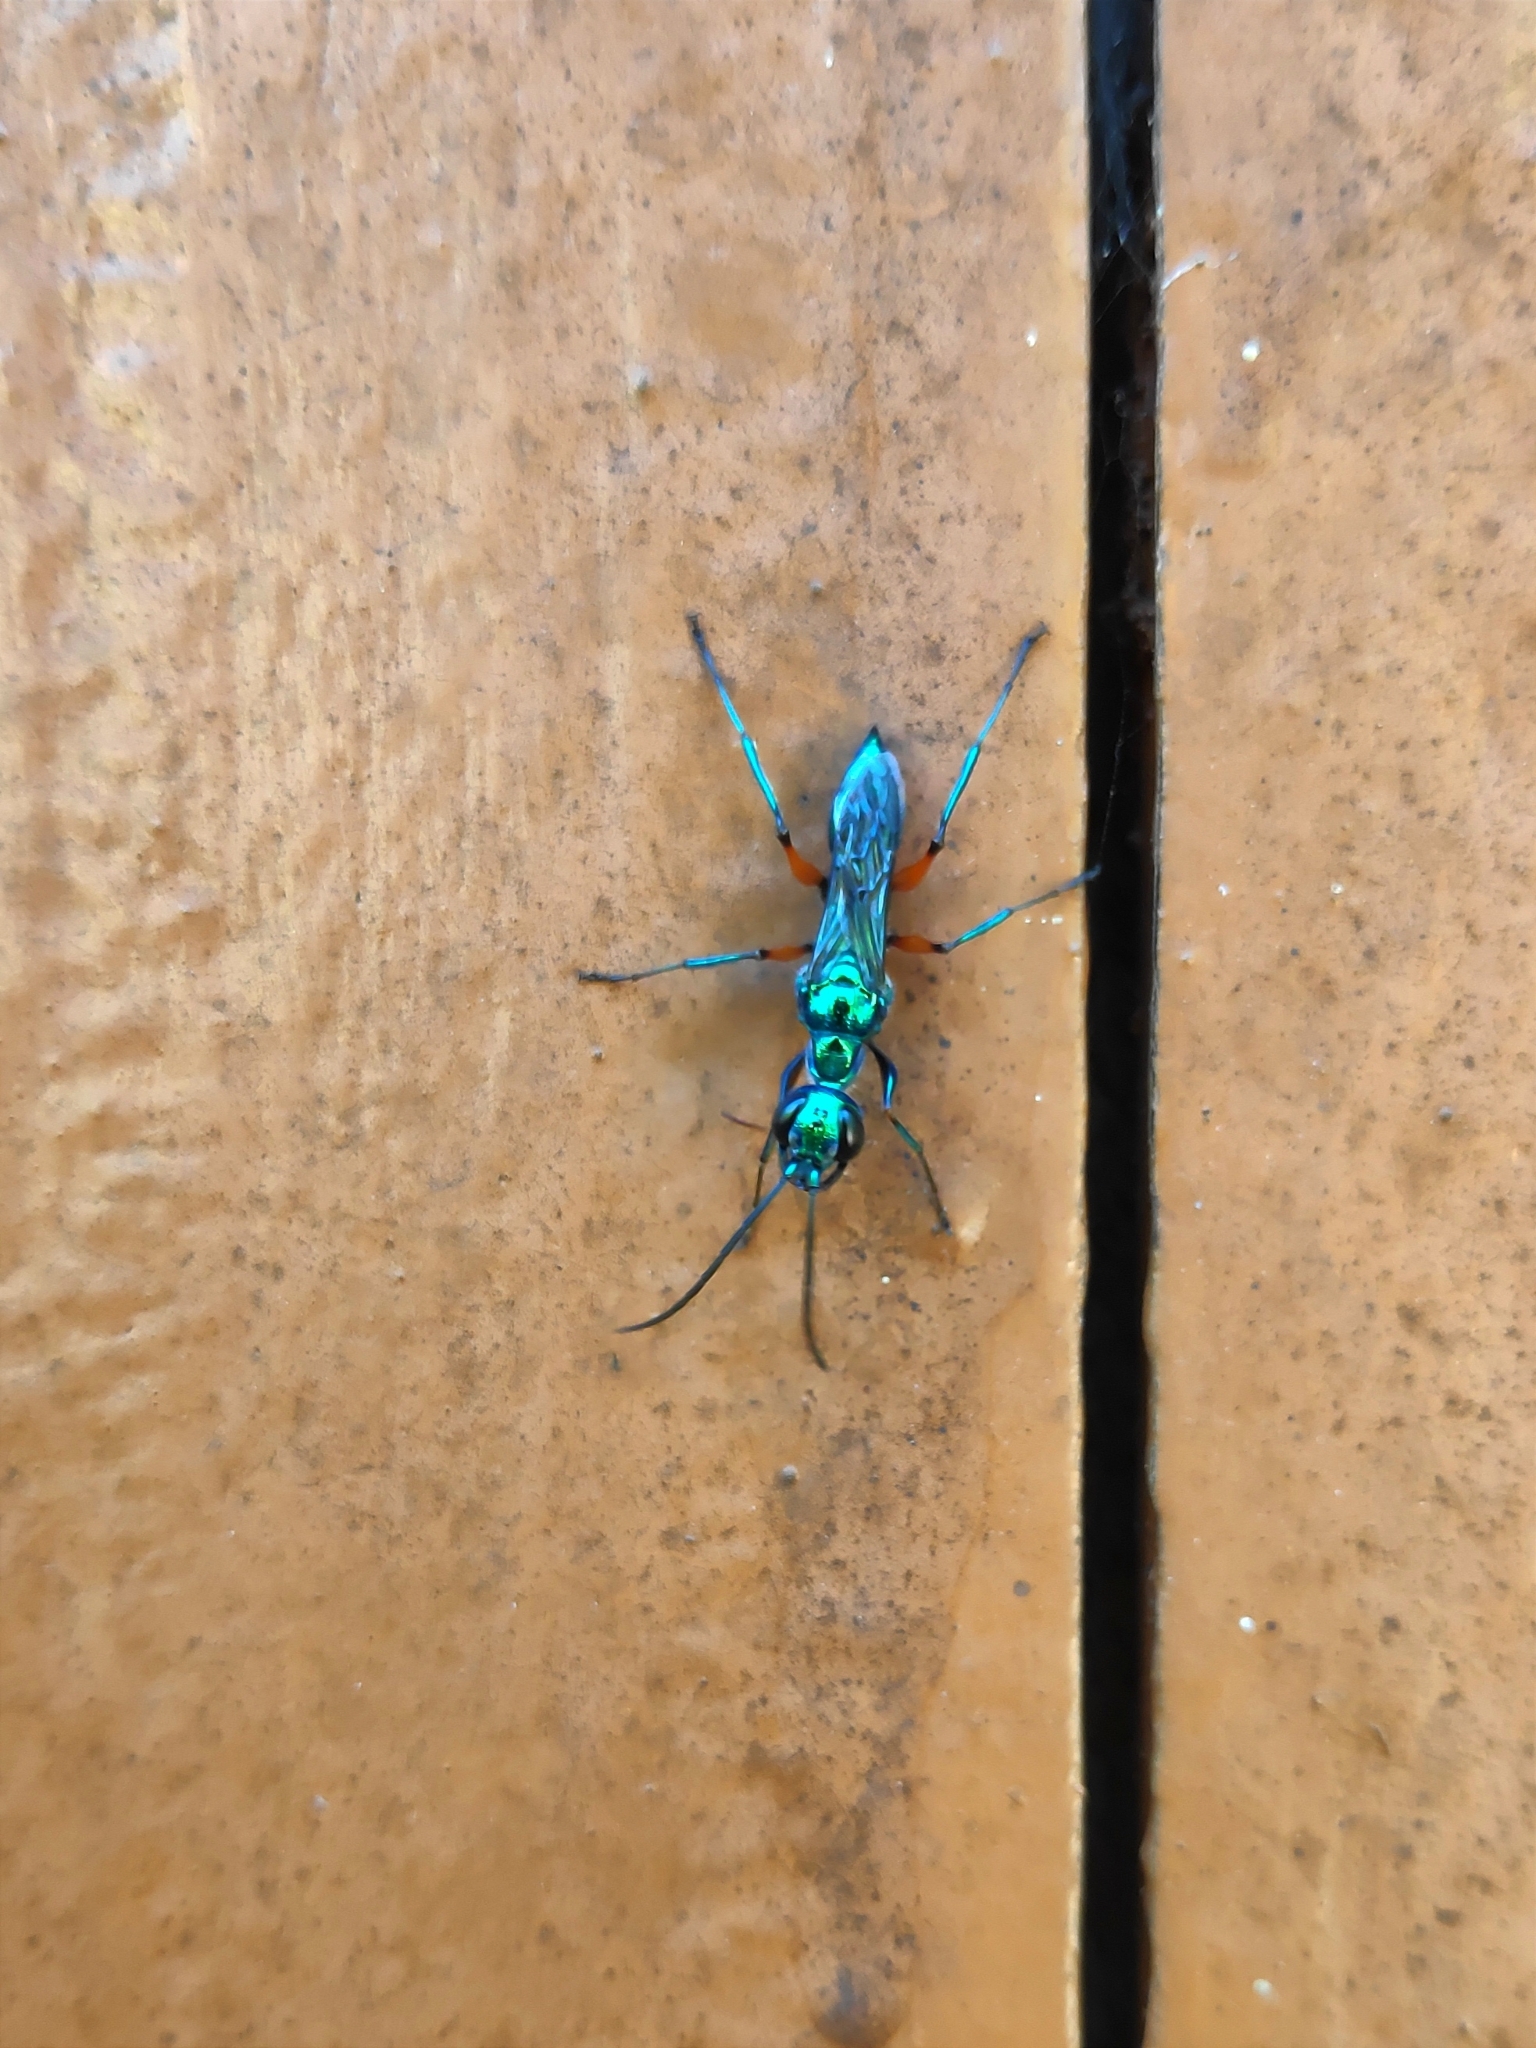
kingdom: Animalia
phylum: Arthropoda
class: Insecta
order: Hymenoptera
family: Ampulicidae
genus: Ampulex
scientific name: Ampulex compressa
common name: Emerald cockroach wasp
